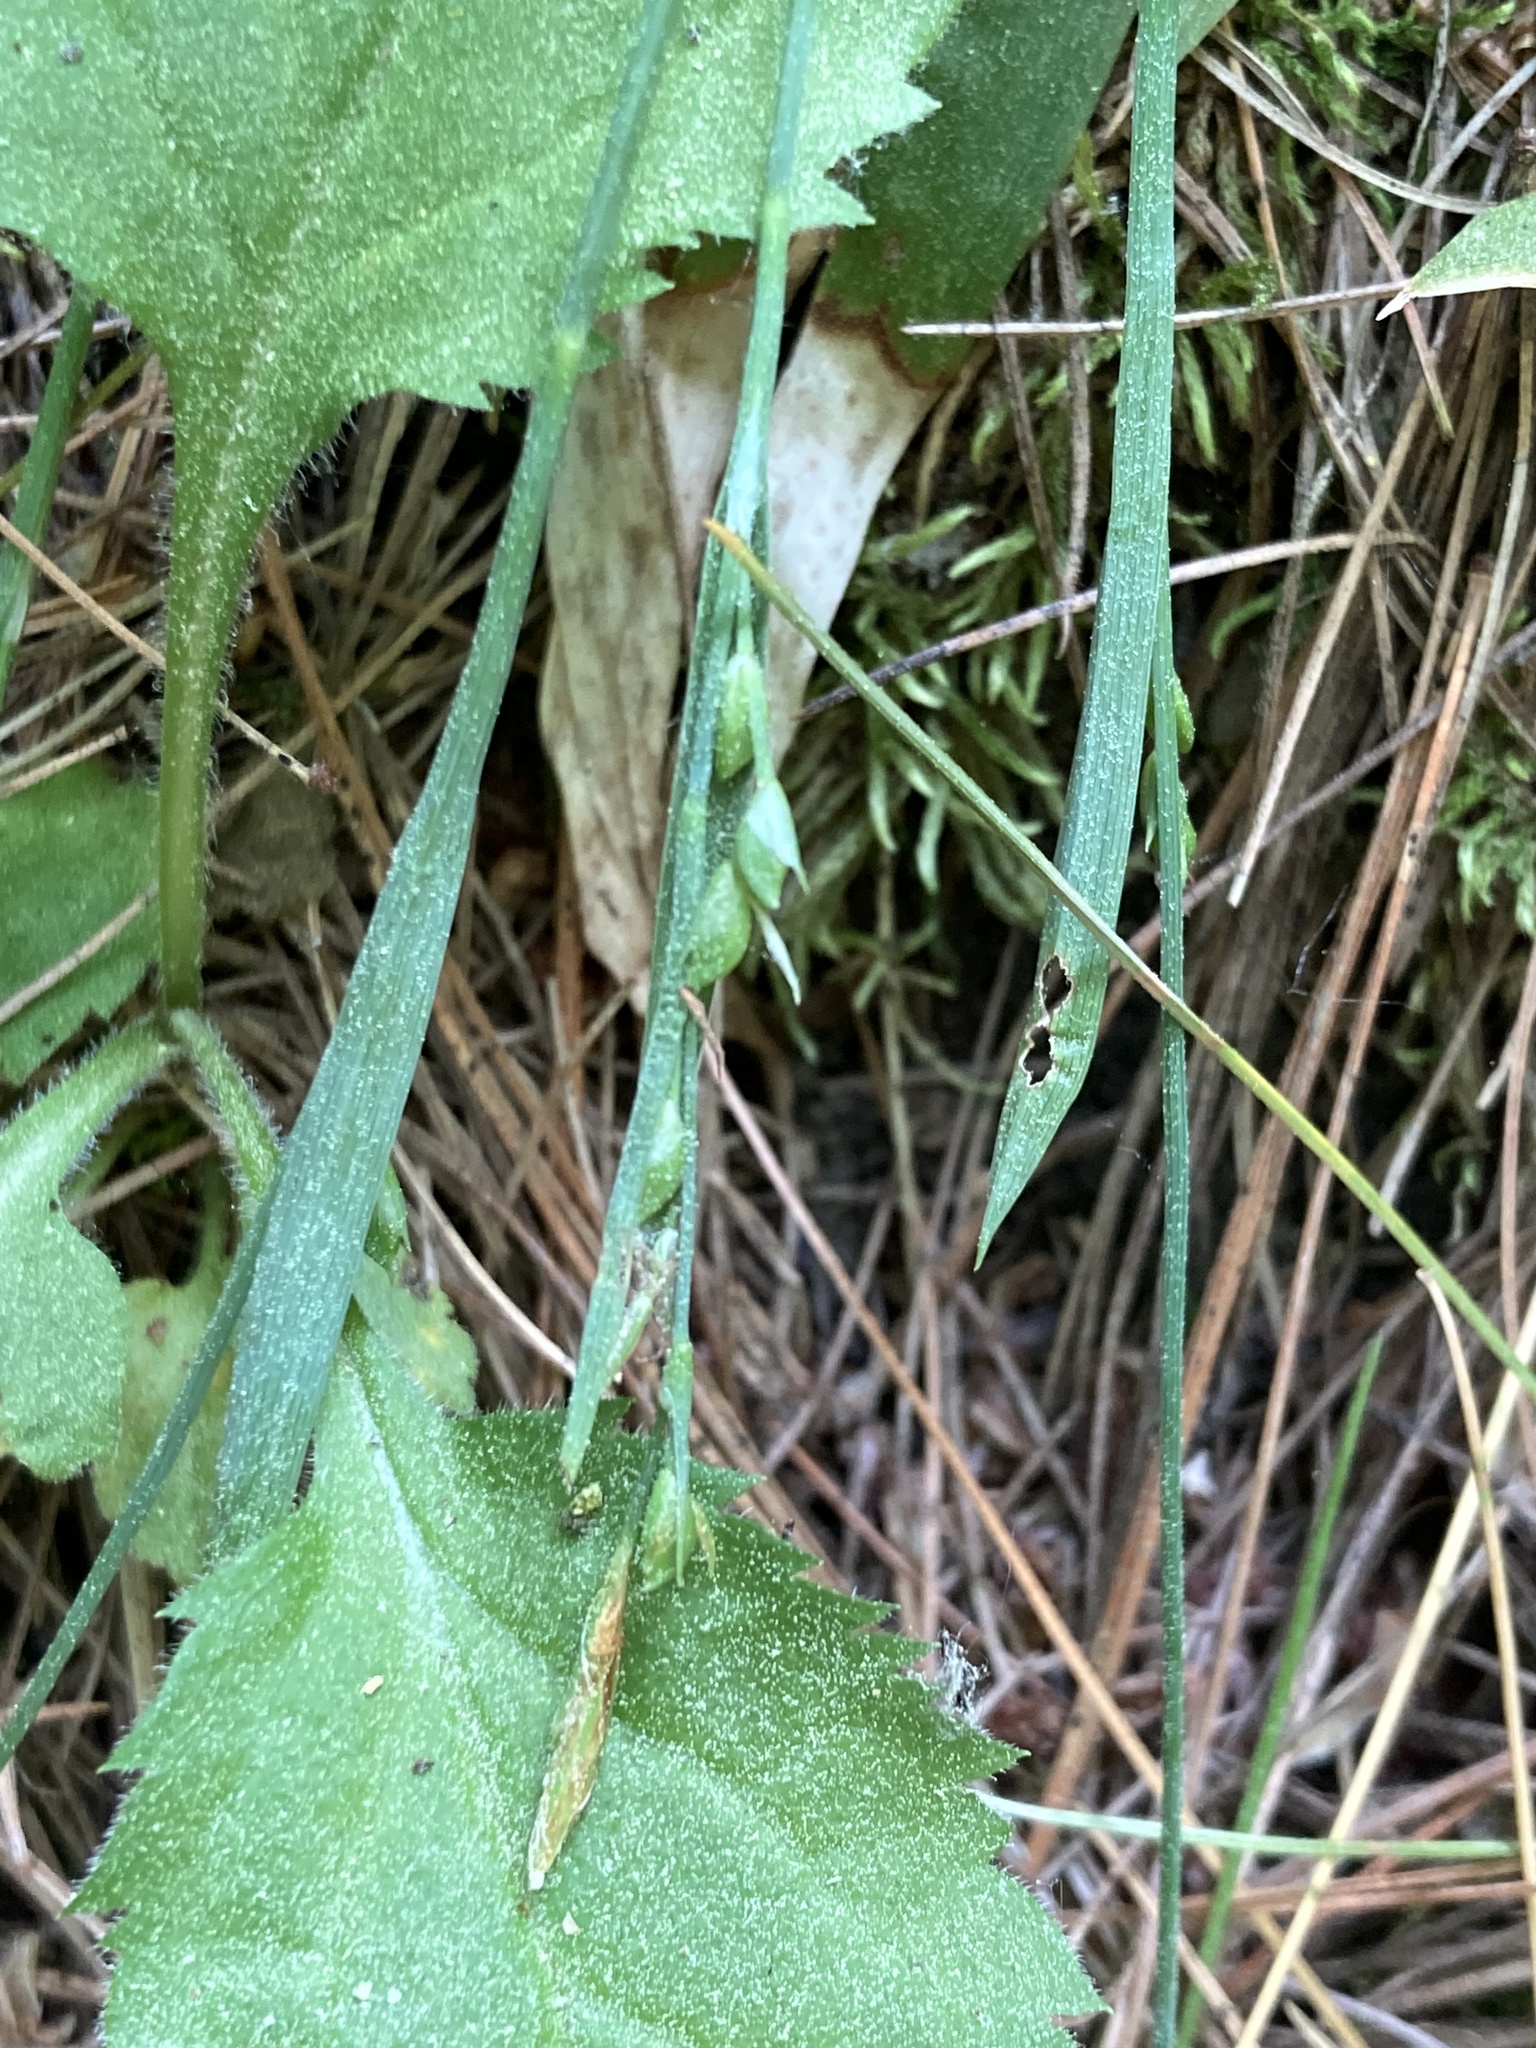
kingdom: Plantae
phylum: Tracheophyta
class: Liliopsida
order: Poales
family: Cyperaceae
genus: Carex
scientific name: Carex platyphylla
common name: Broad-leaved sedge
